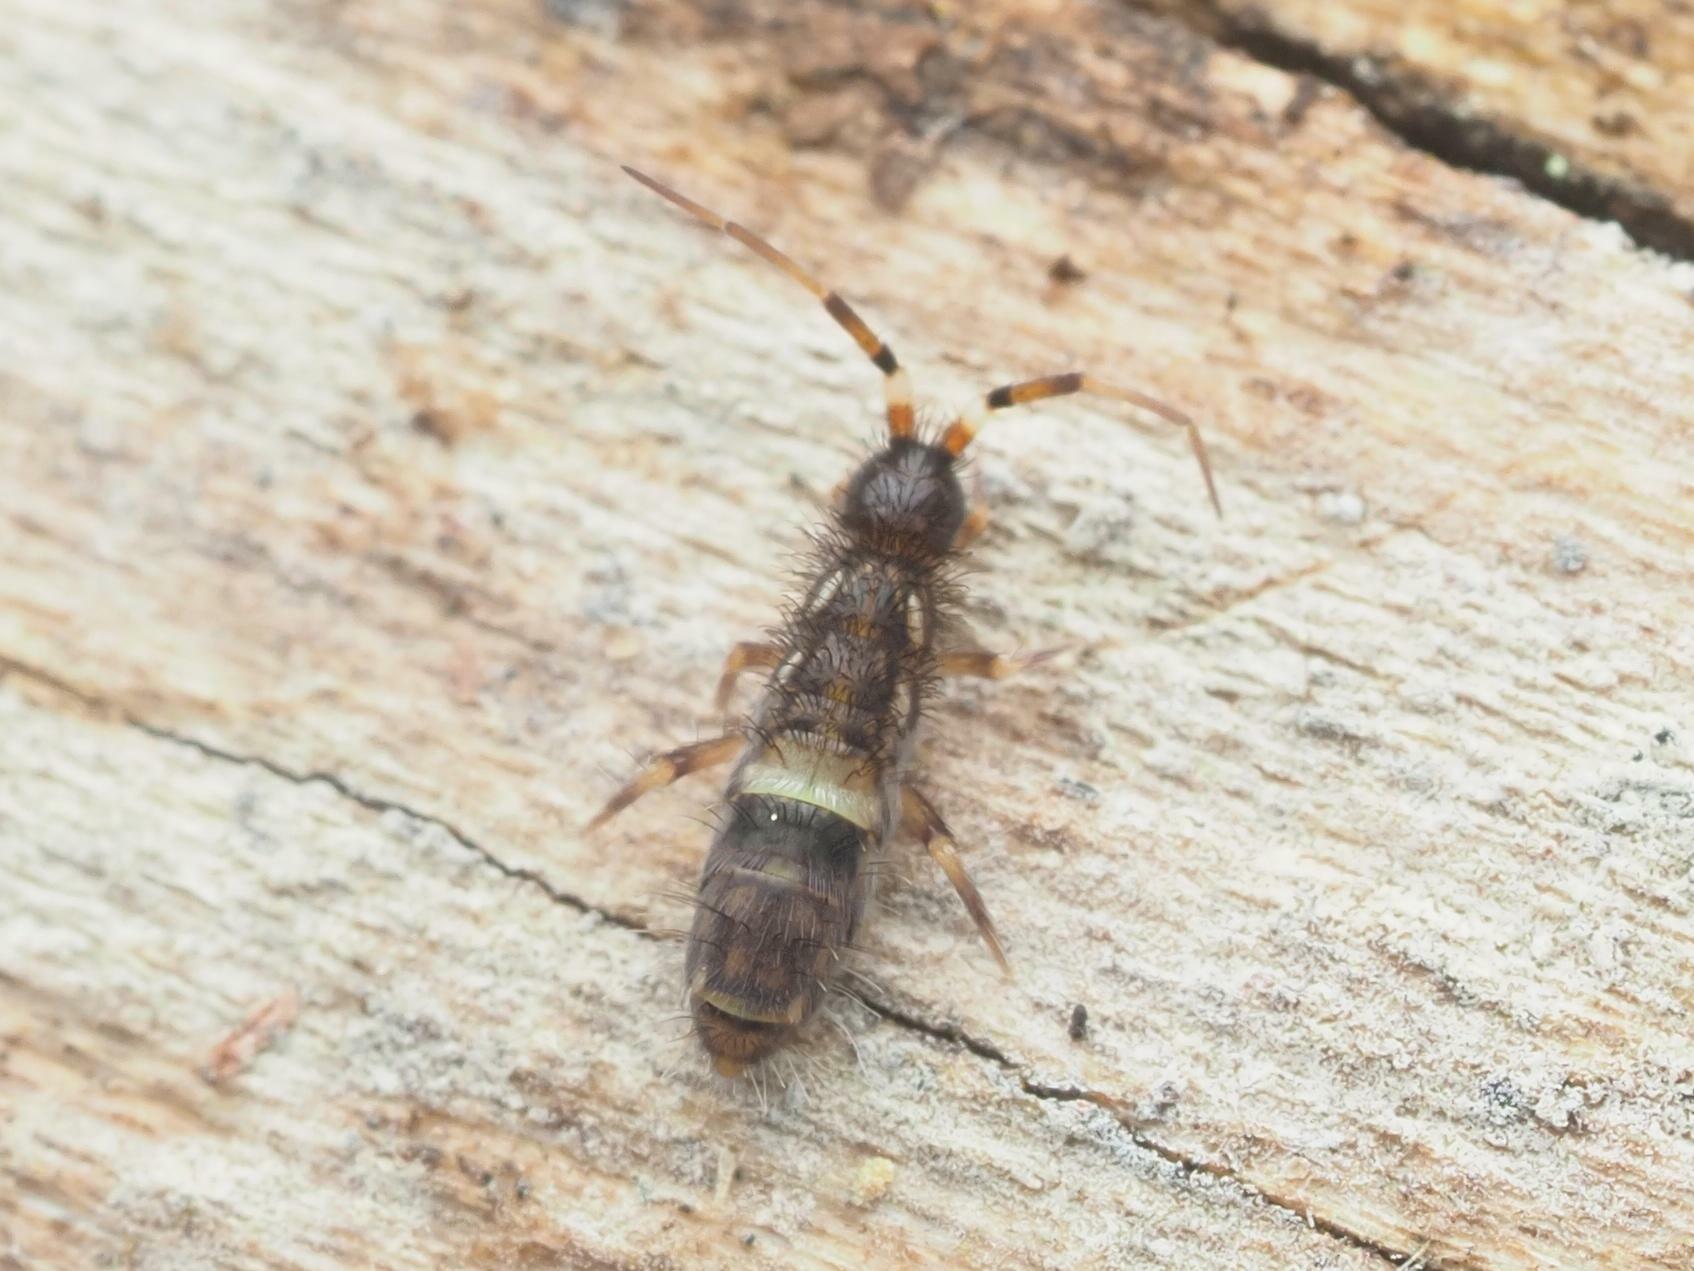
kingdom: Animalia
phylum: Arthropoda
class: Collembola
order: Entomobryomorpha
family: Orchesellidae
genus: Orchesella
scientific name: Orchesella cincta
